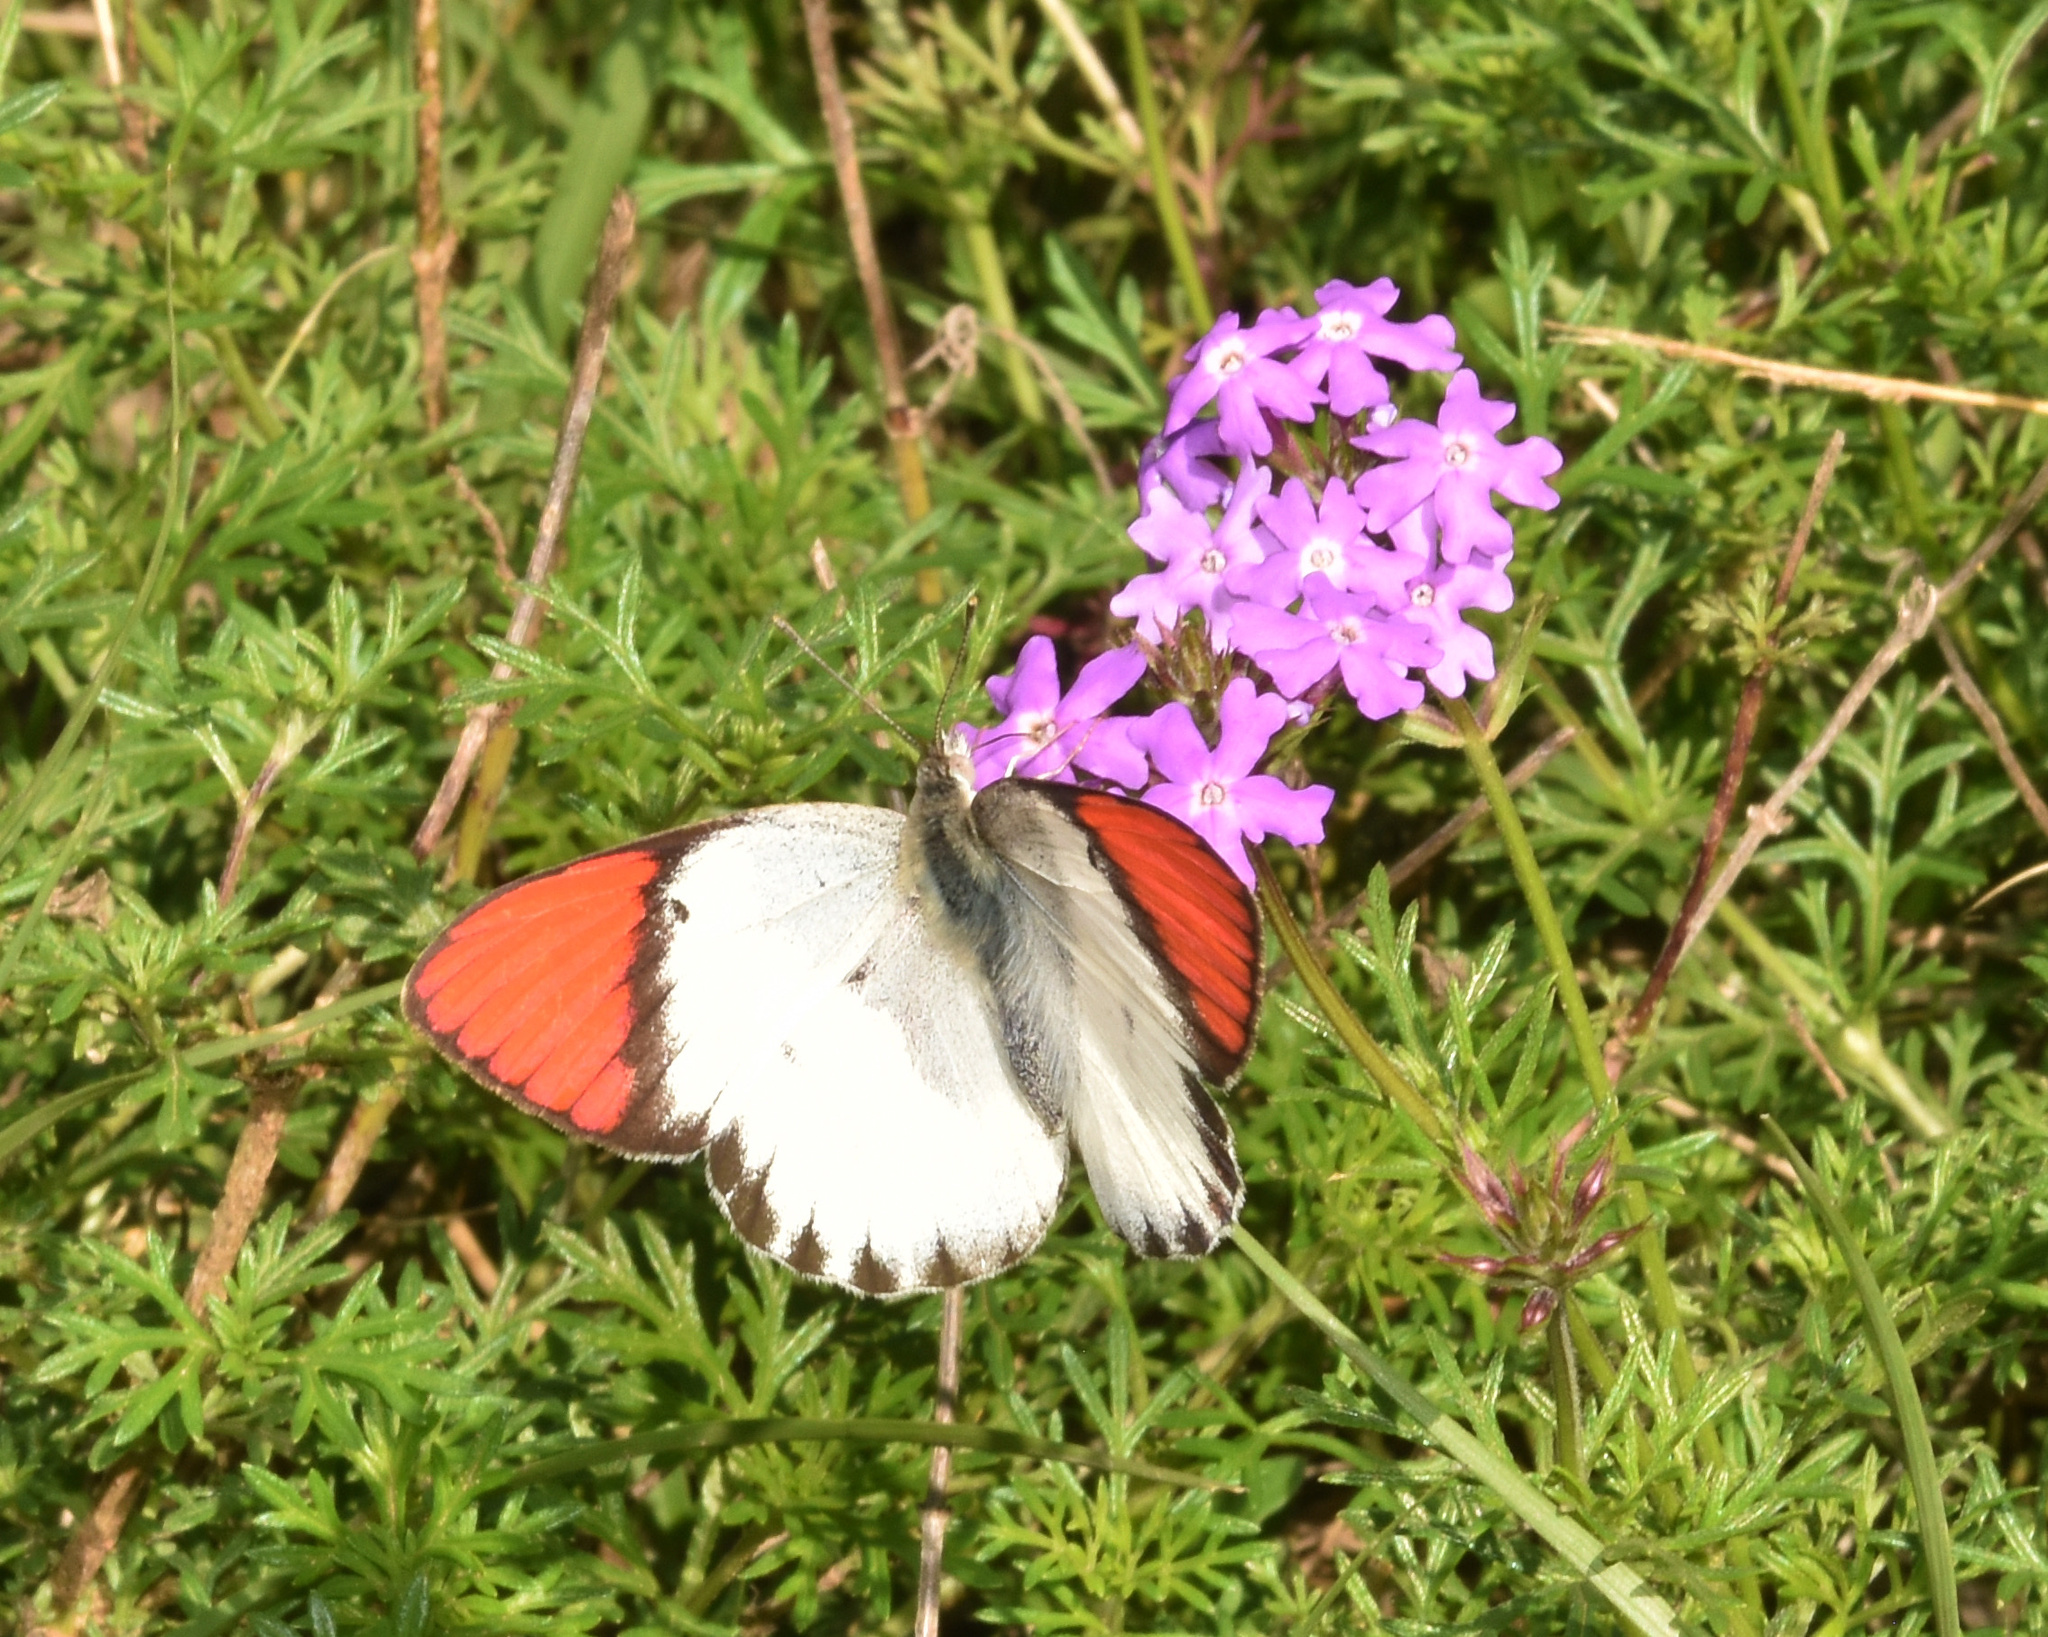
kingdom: Animalia
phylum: Arthropoda
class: Insecta
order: Lepidoptera
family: Pieridae
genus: Colotis
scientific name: Colotis annae
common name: Scarlet tip
